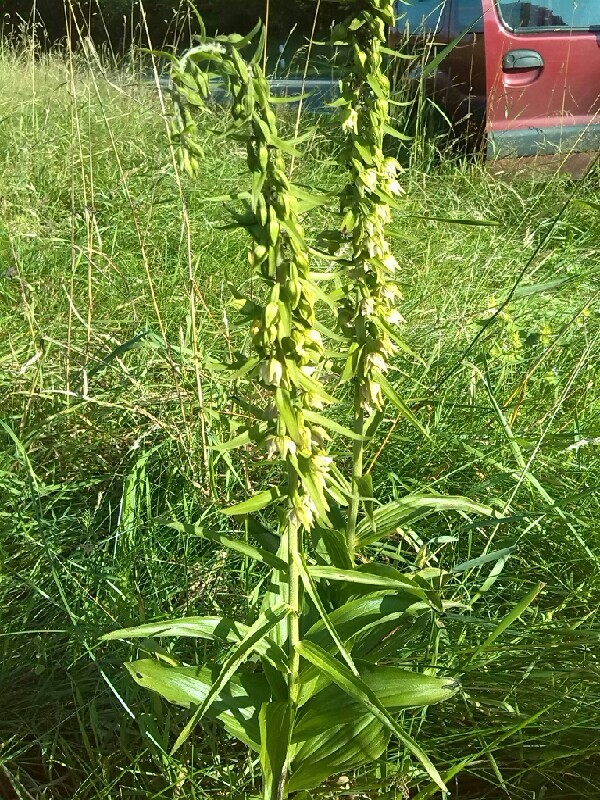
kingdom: Plantae
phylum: Tracheophyta
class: Liliopsida
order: Asparagales
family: Orchidaceae
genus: Epipactis
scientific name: Epipactis helleborine
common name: Broad-leaved helleborine
